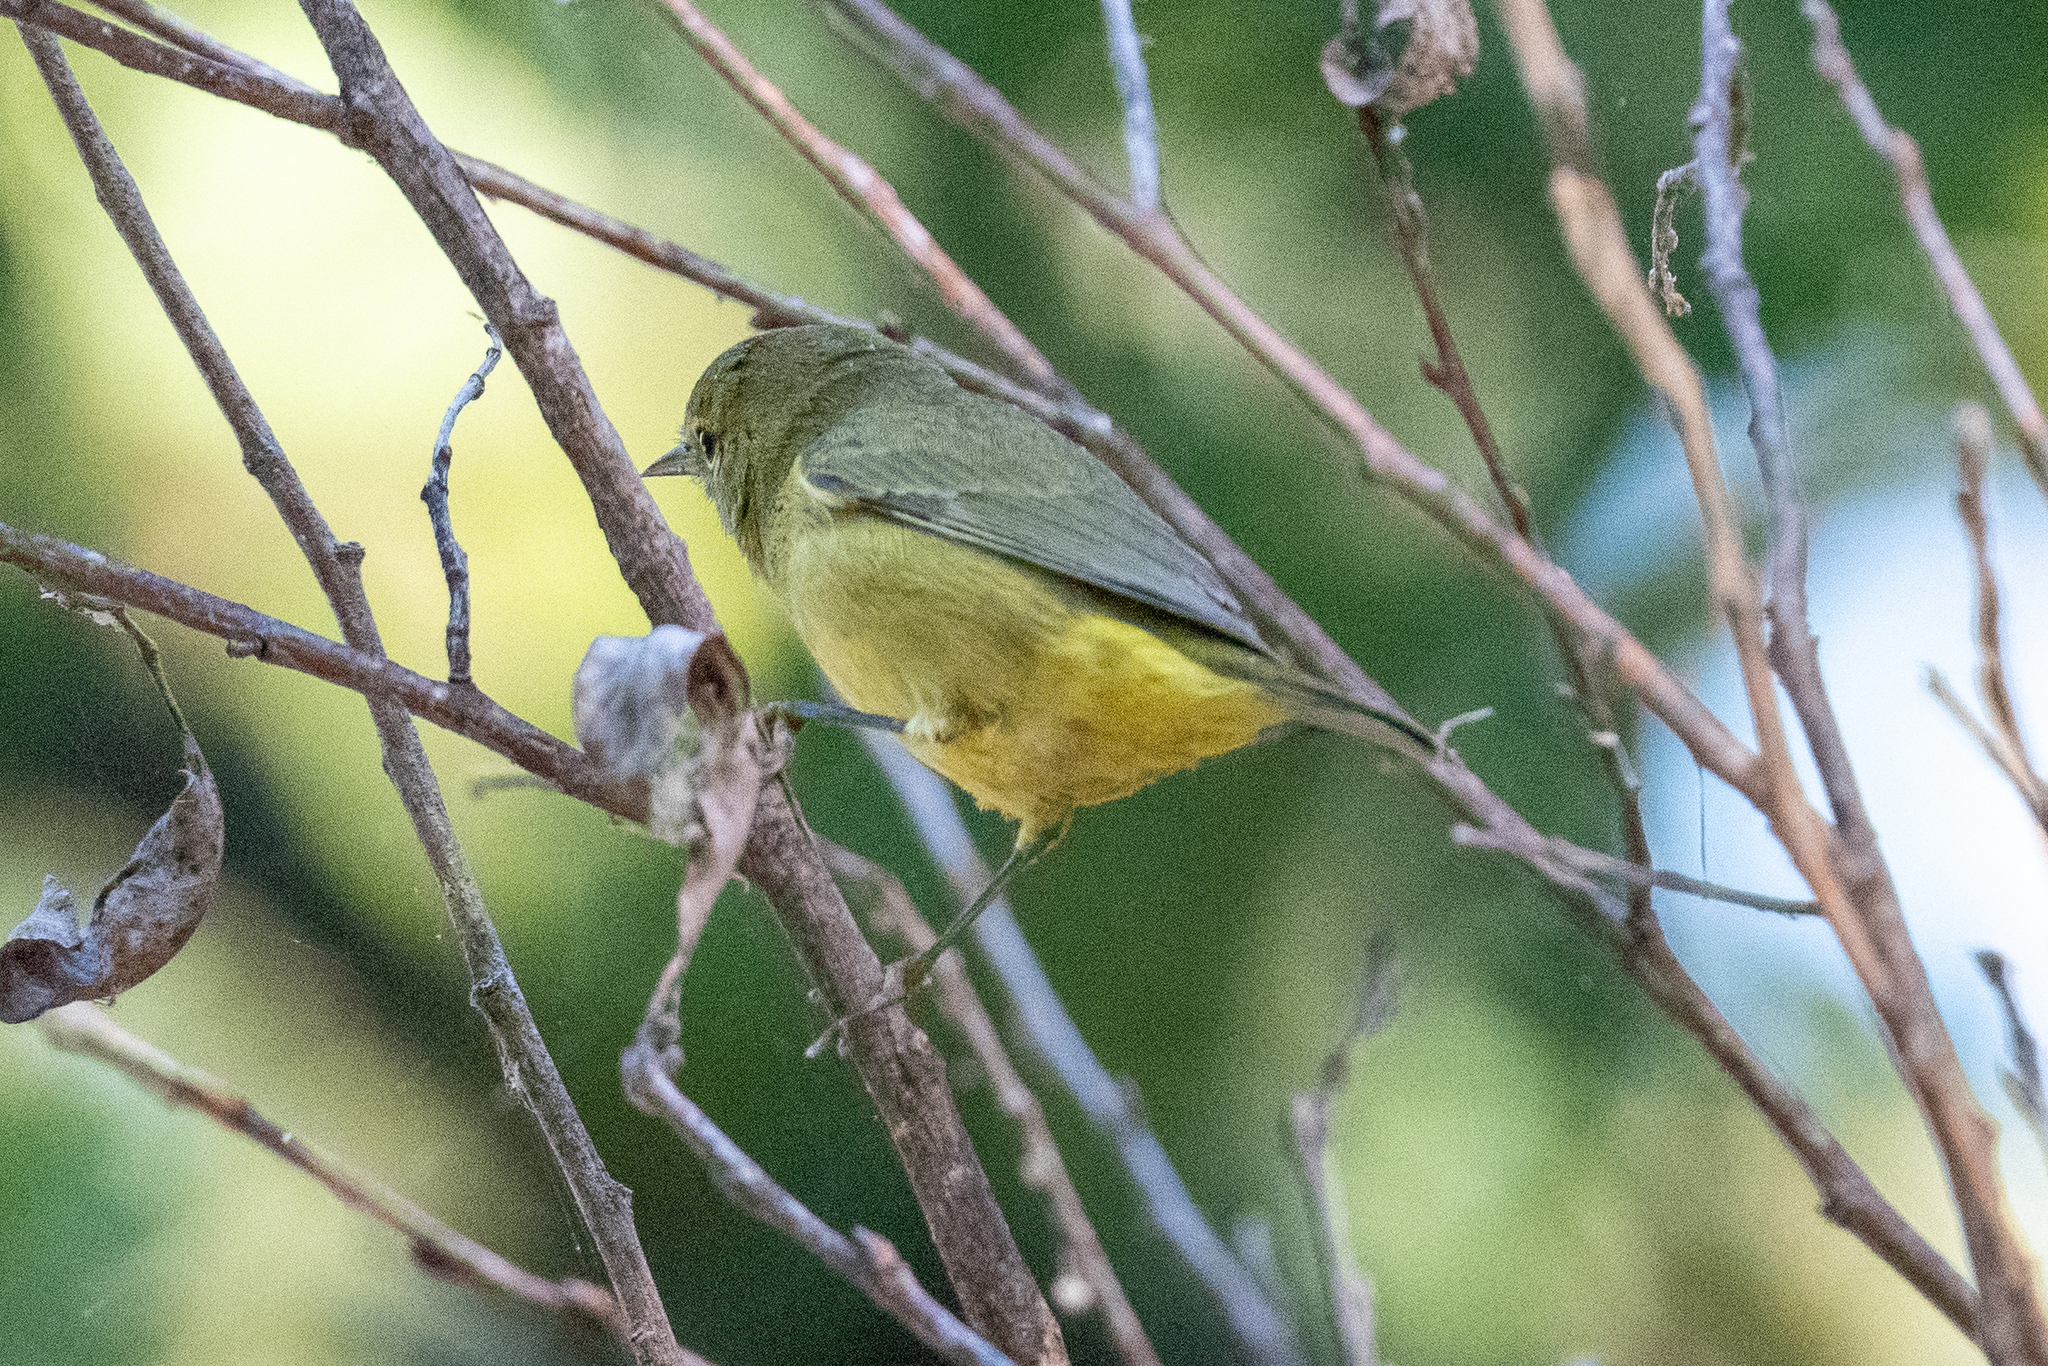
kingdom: Animalia
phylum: Chordata
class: Aves
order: Passeriformes
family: Parulidae
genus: Leiothlypis
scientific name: Leiothlypis celata
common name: Orange-crowned warbler
